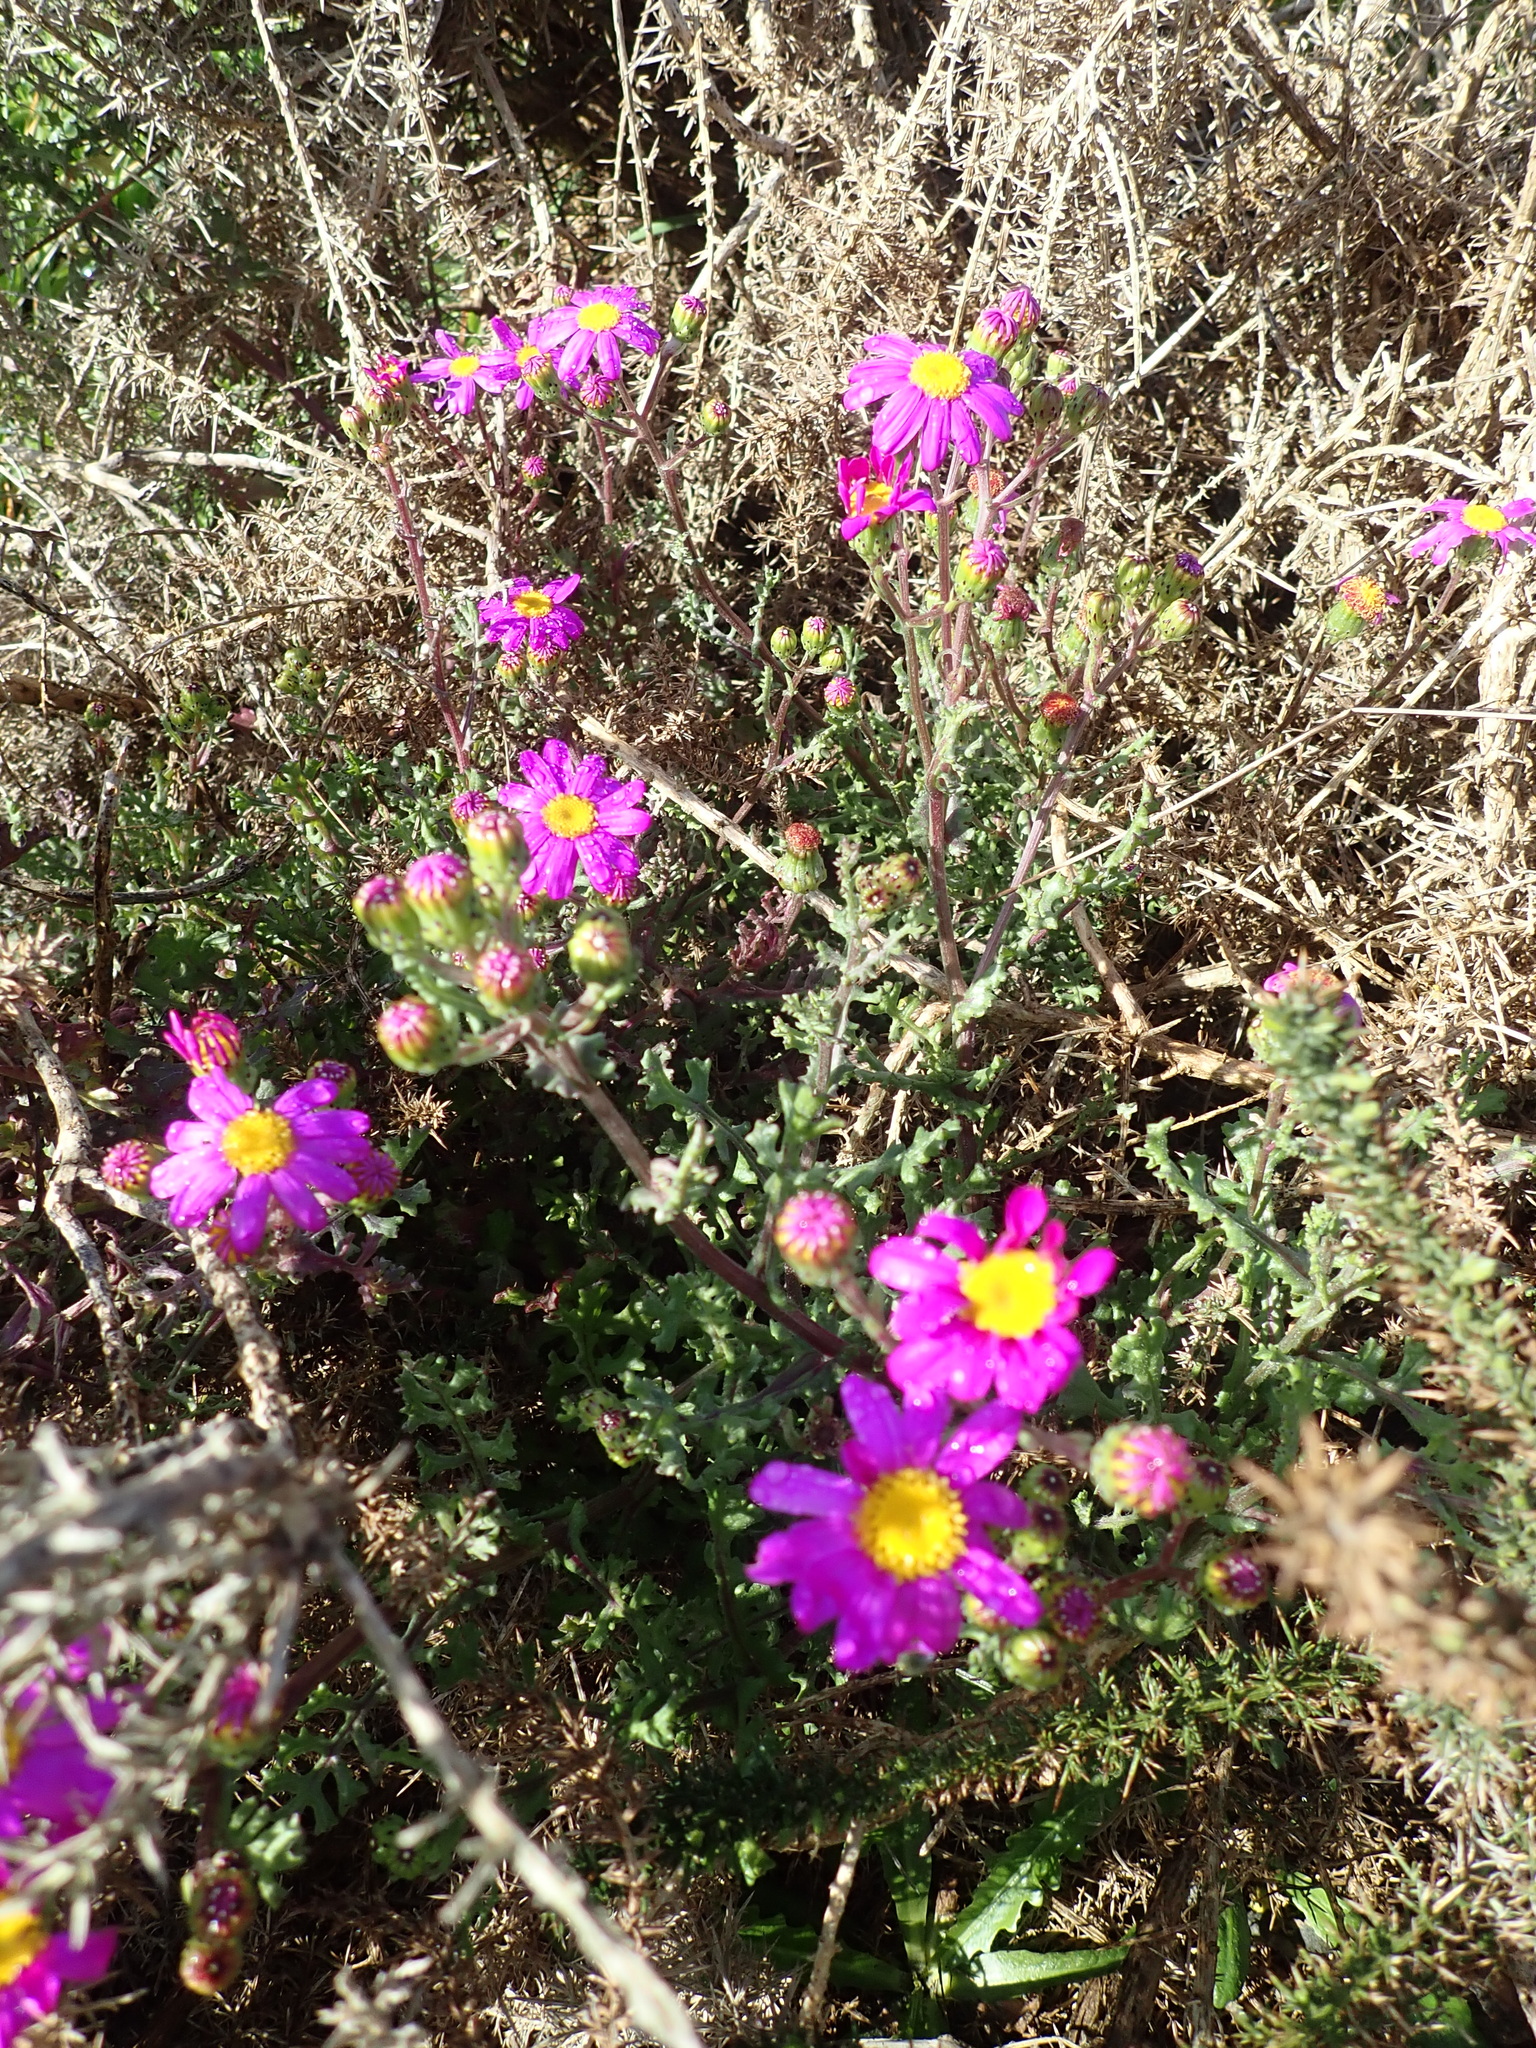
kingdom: Plantae
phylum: Tracheophyta
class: Magnoliopsida
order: Asterales
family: Asteraceae
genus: Senecio
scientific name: Senecio elegans
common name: Purple groundsel
